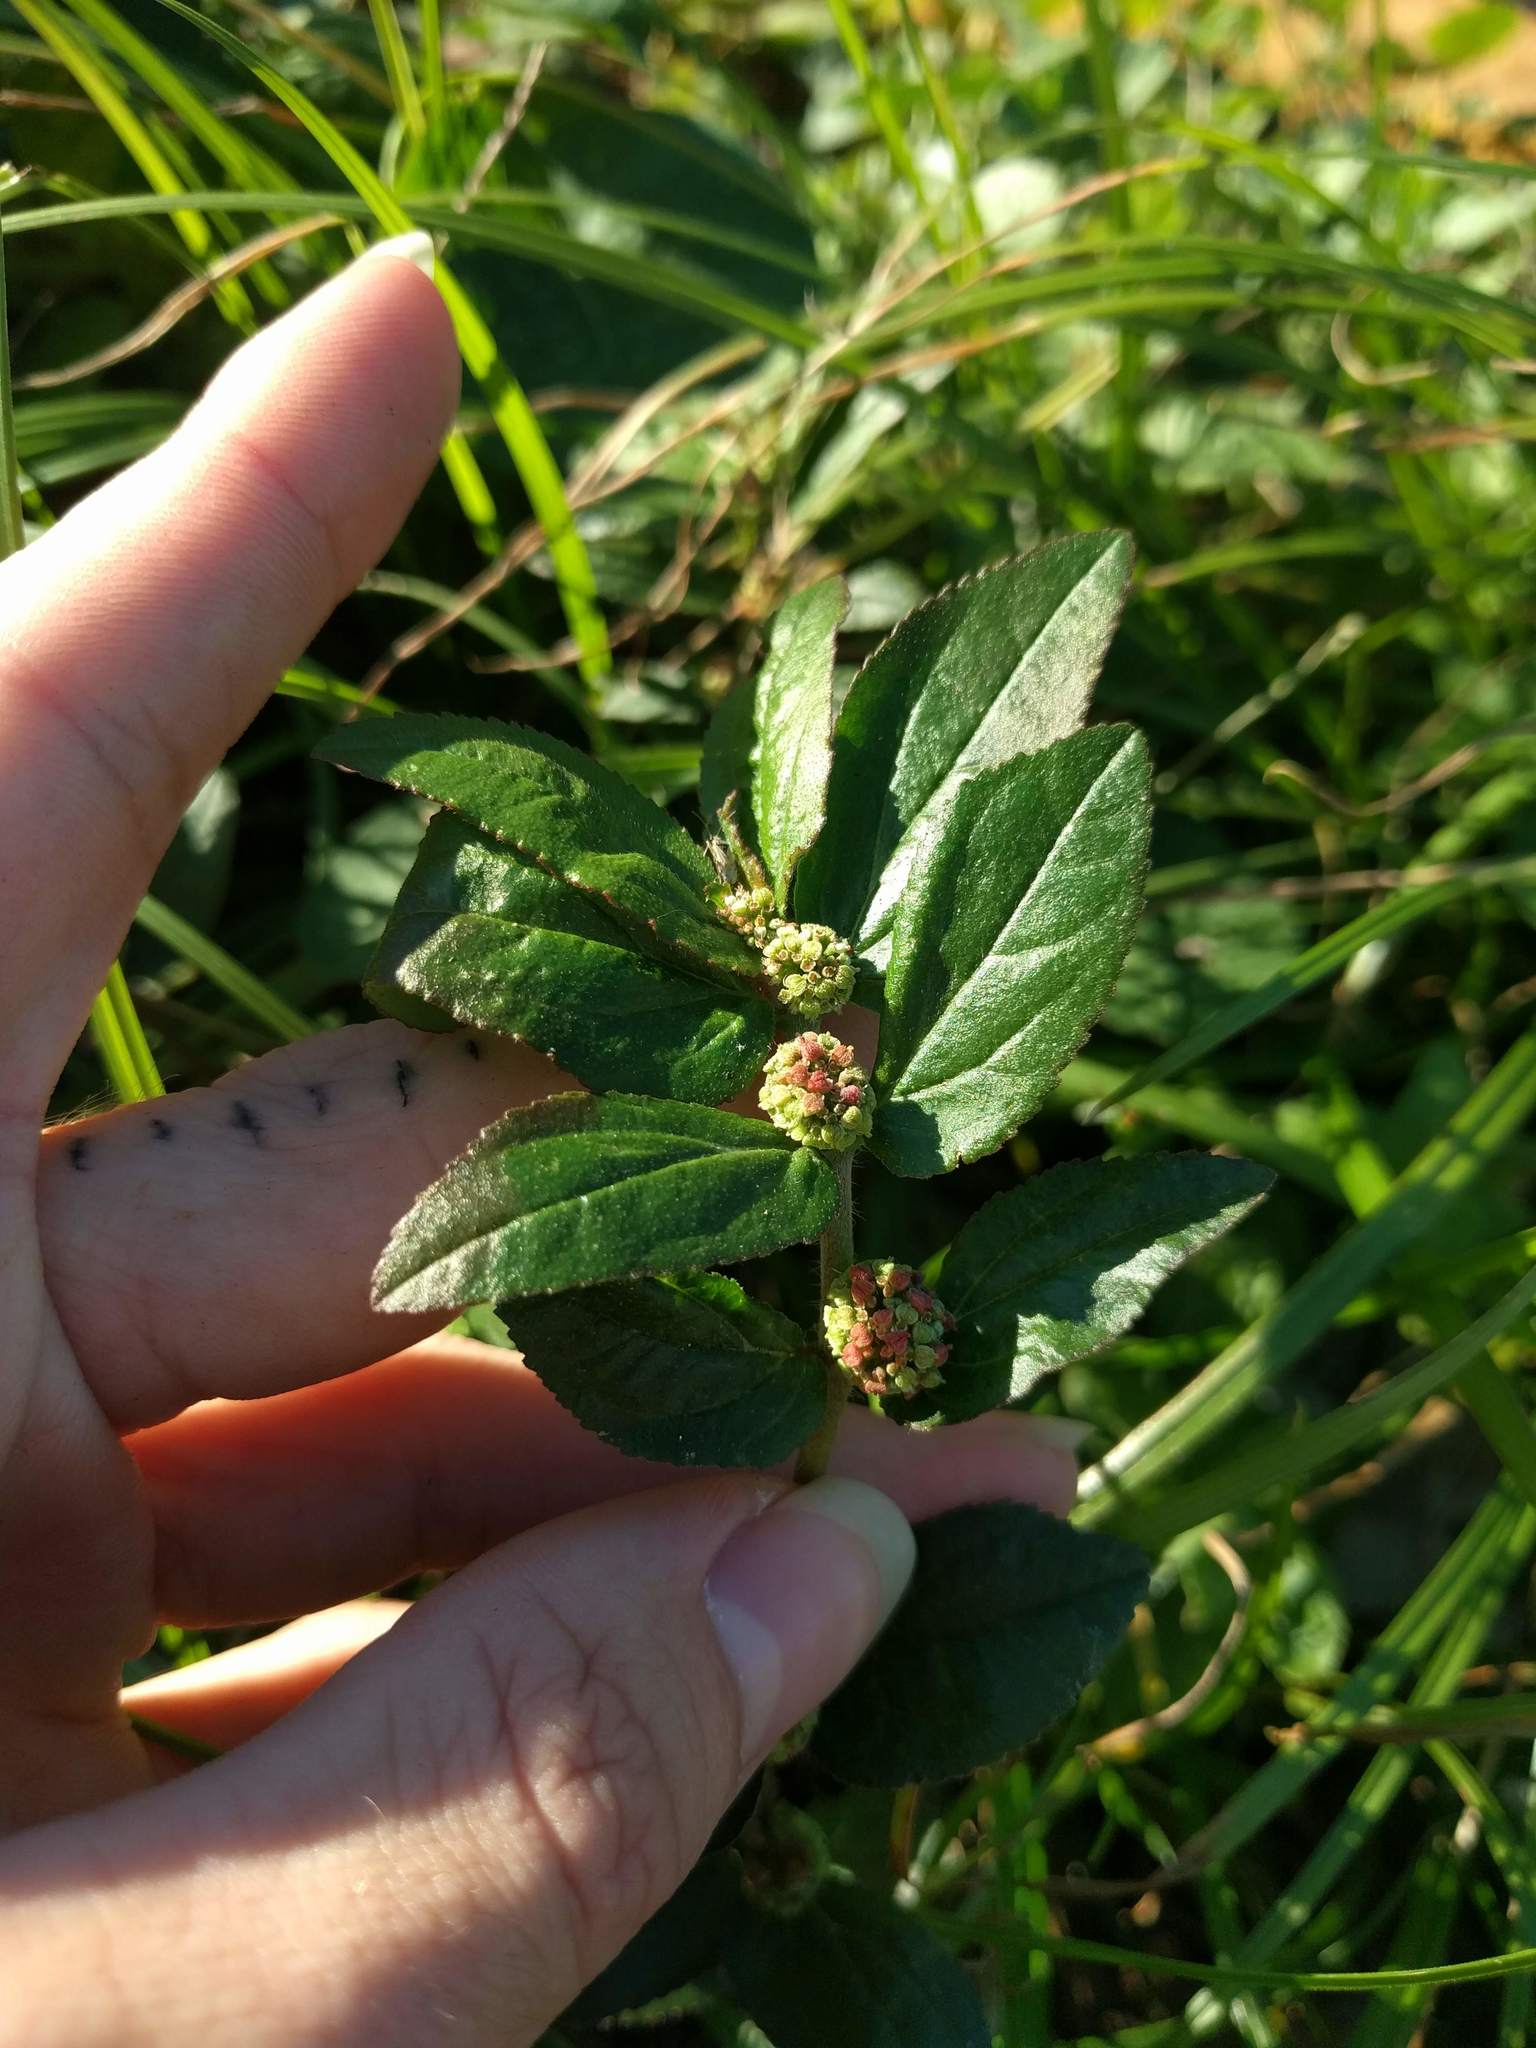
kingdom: Plantae
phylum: Tracheophyta
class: Magnoliopsida
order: Malpighiales
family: Euphorbiaceae
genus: Euphorbia
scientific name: Euphorbia hirta
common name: Pillpod sandmat
